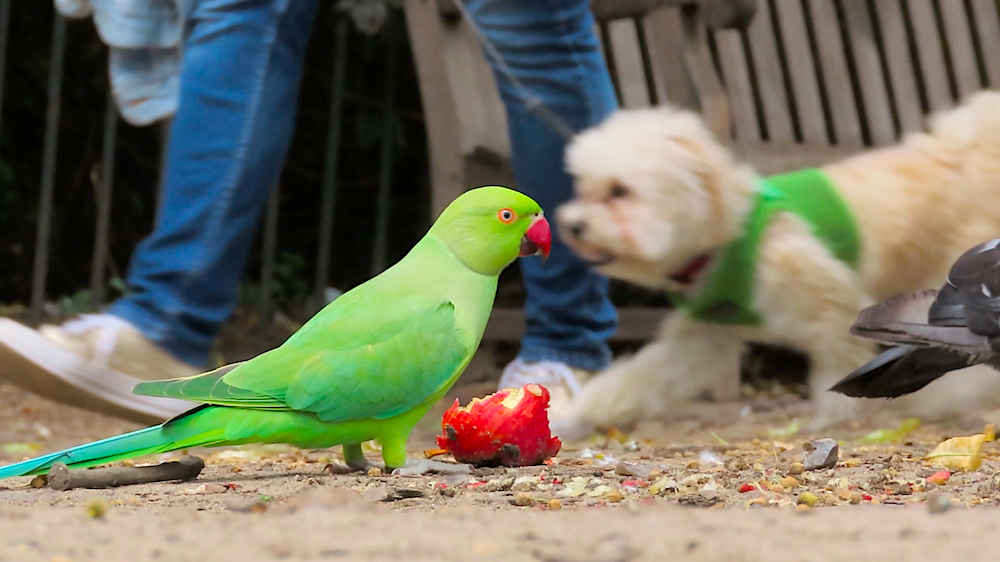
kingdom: Animalia
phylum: Chordata
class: Aves
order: Psittaciformes
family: Psittacidae
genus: Psittacula
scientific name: Psittacula krameri
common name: Rose-ringed parakeet
